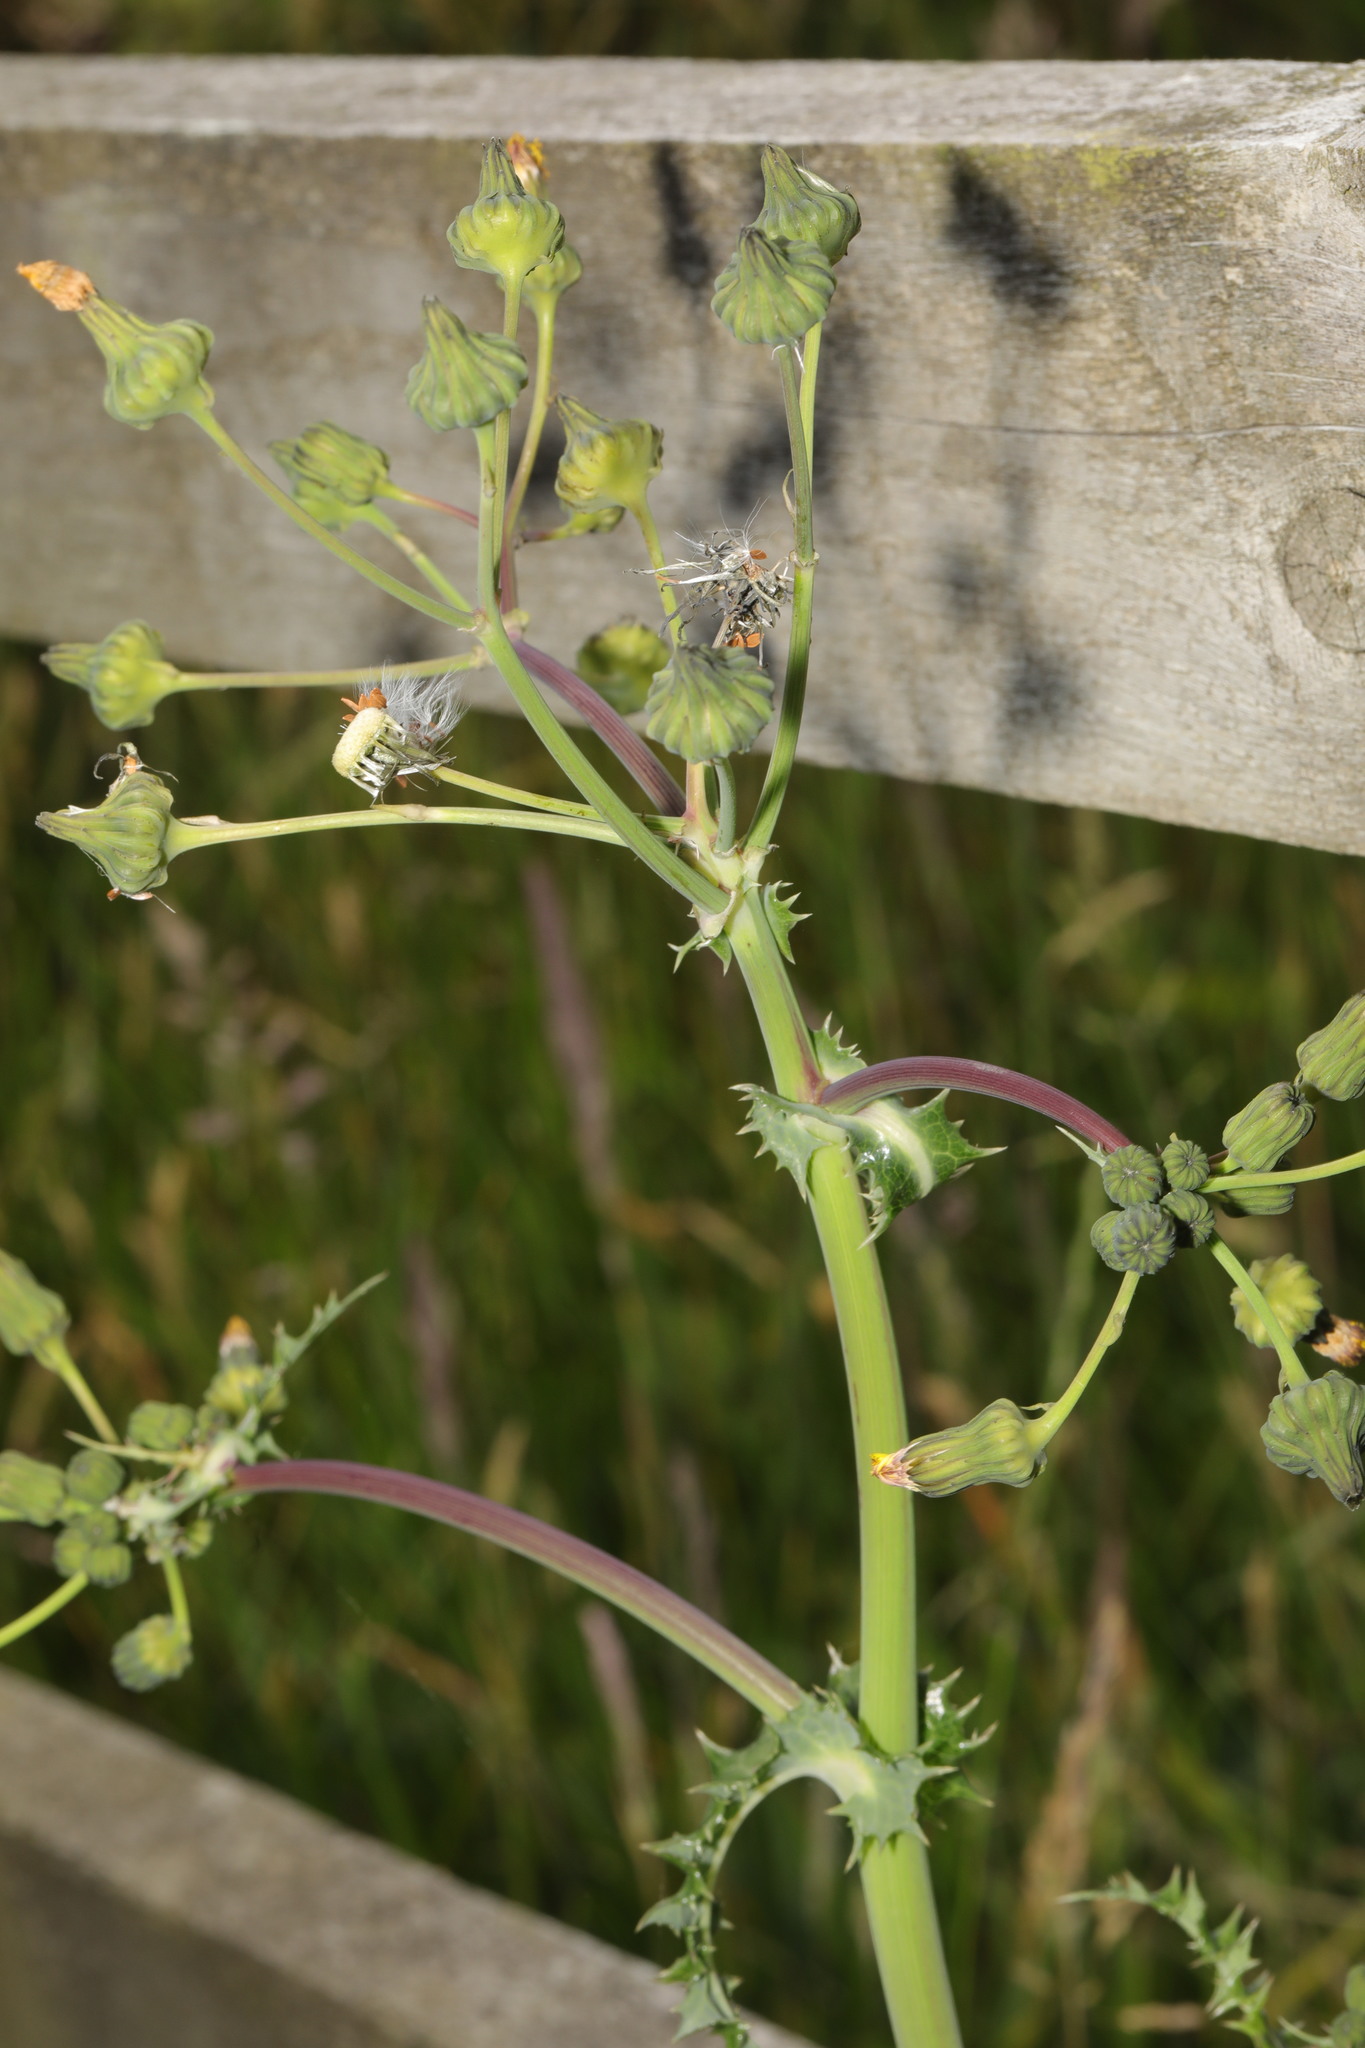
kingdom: Plantae
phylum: Tracheophyta
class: Magnoliopsida
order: Asterales
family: Asteraceae
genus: Sonchus
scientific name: Sonchus asper
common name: Prickly sow-thistle
